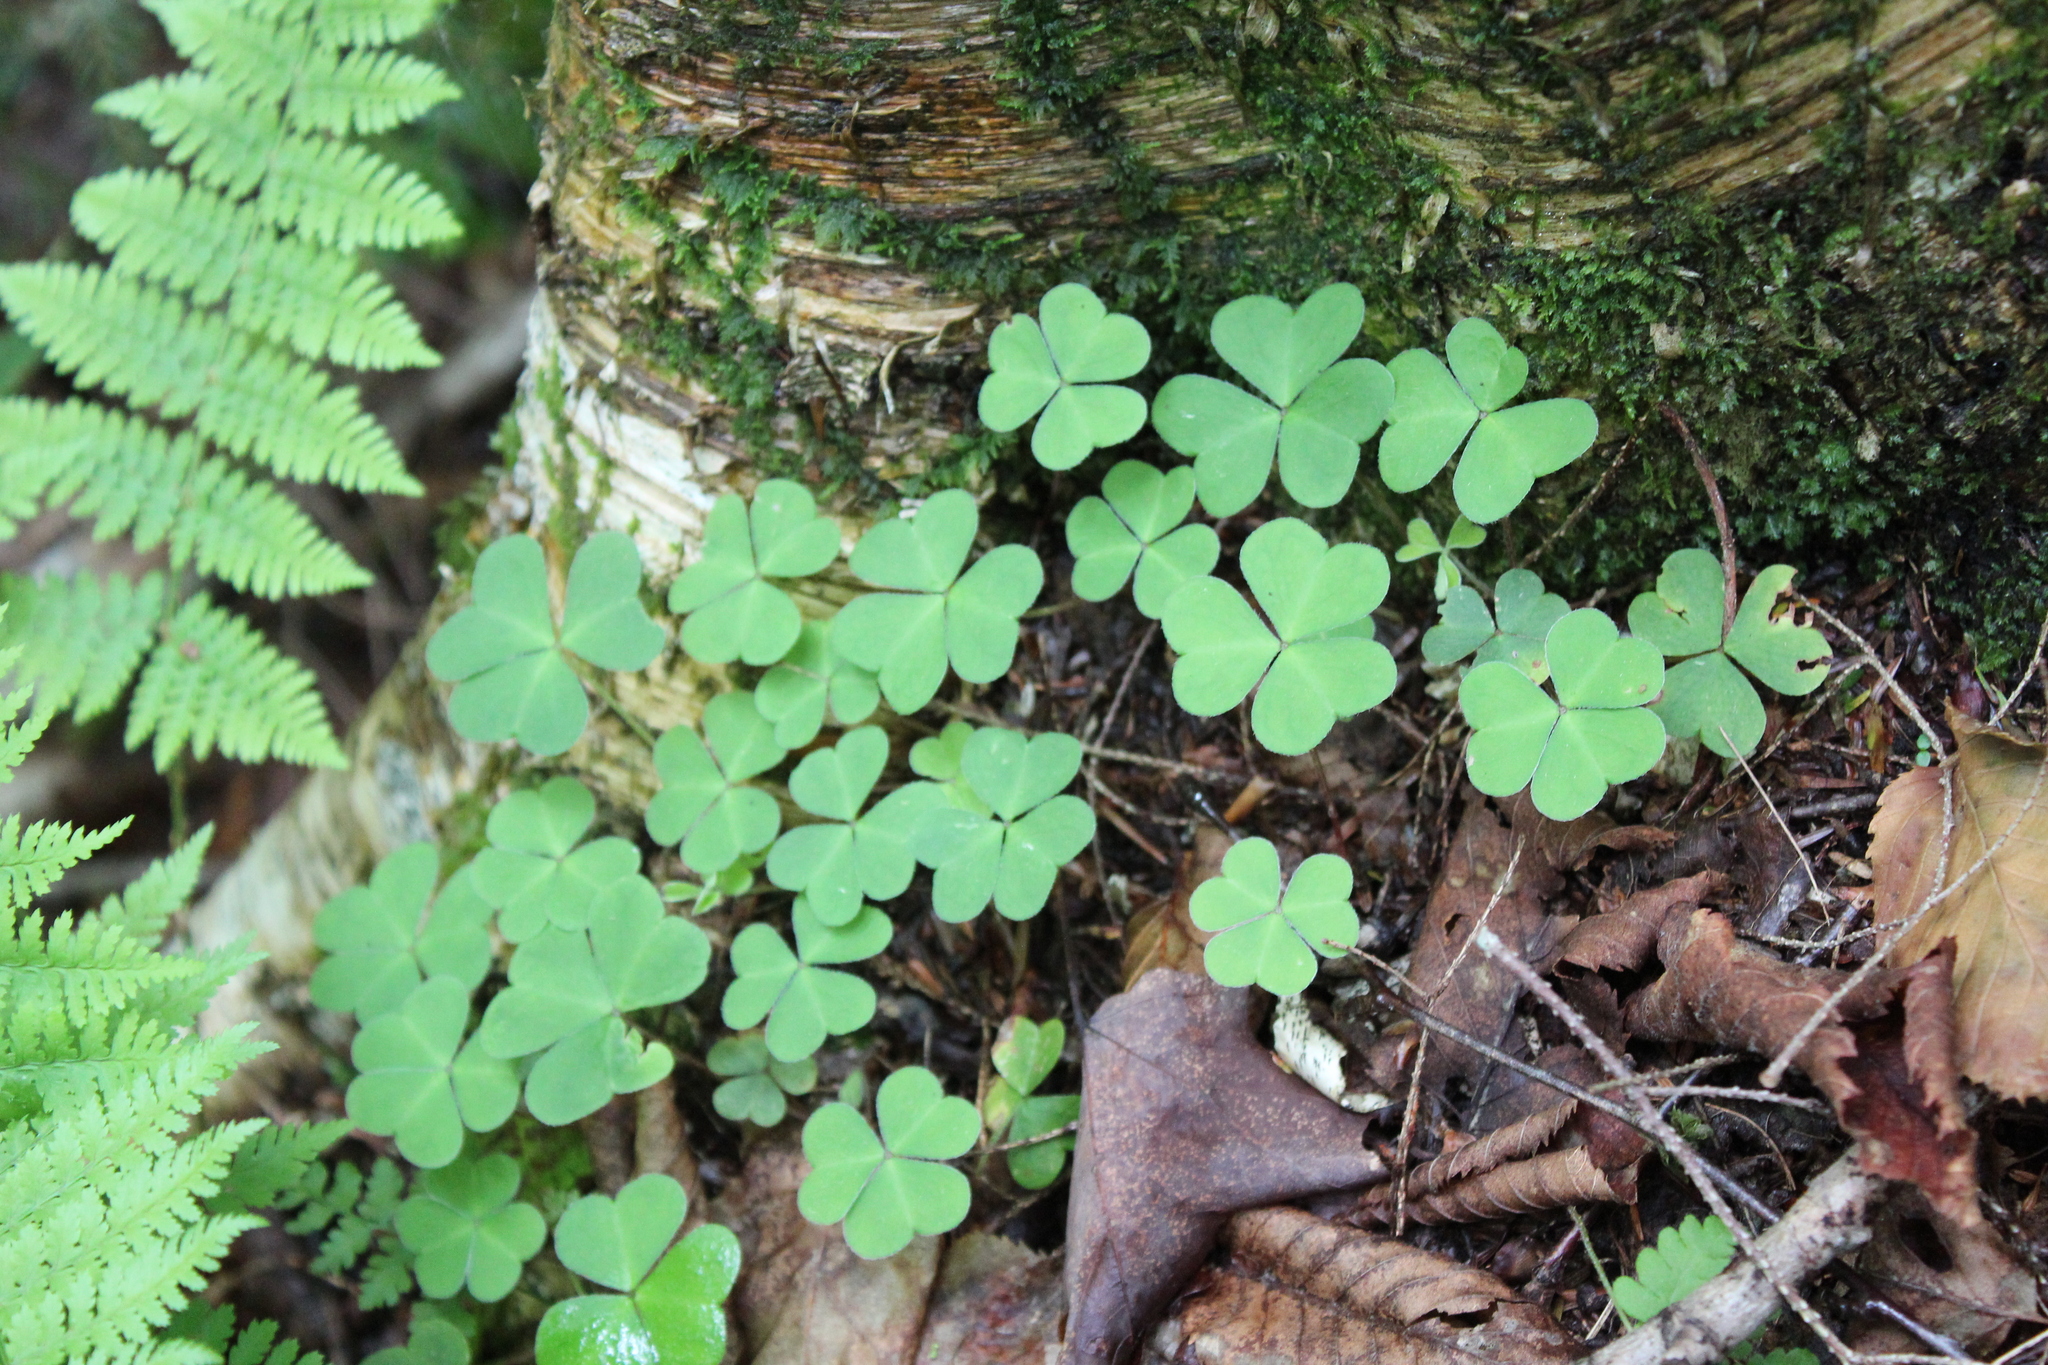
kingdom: Plantae
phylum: Tracheophyta
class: Magnoliopsida
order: Oxalidales
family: Oxalidaceae
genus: Oxalis
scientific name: Oxalis montana
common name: American wood-sorrel
